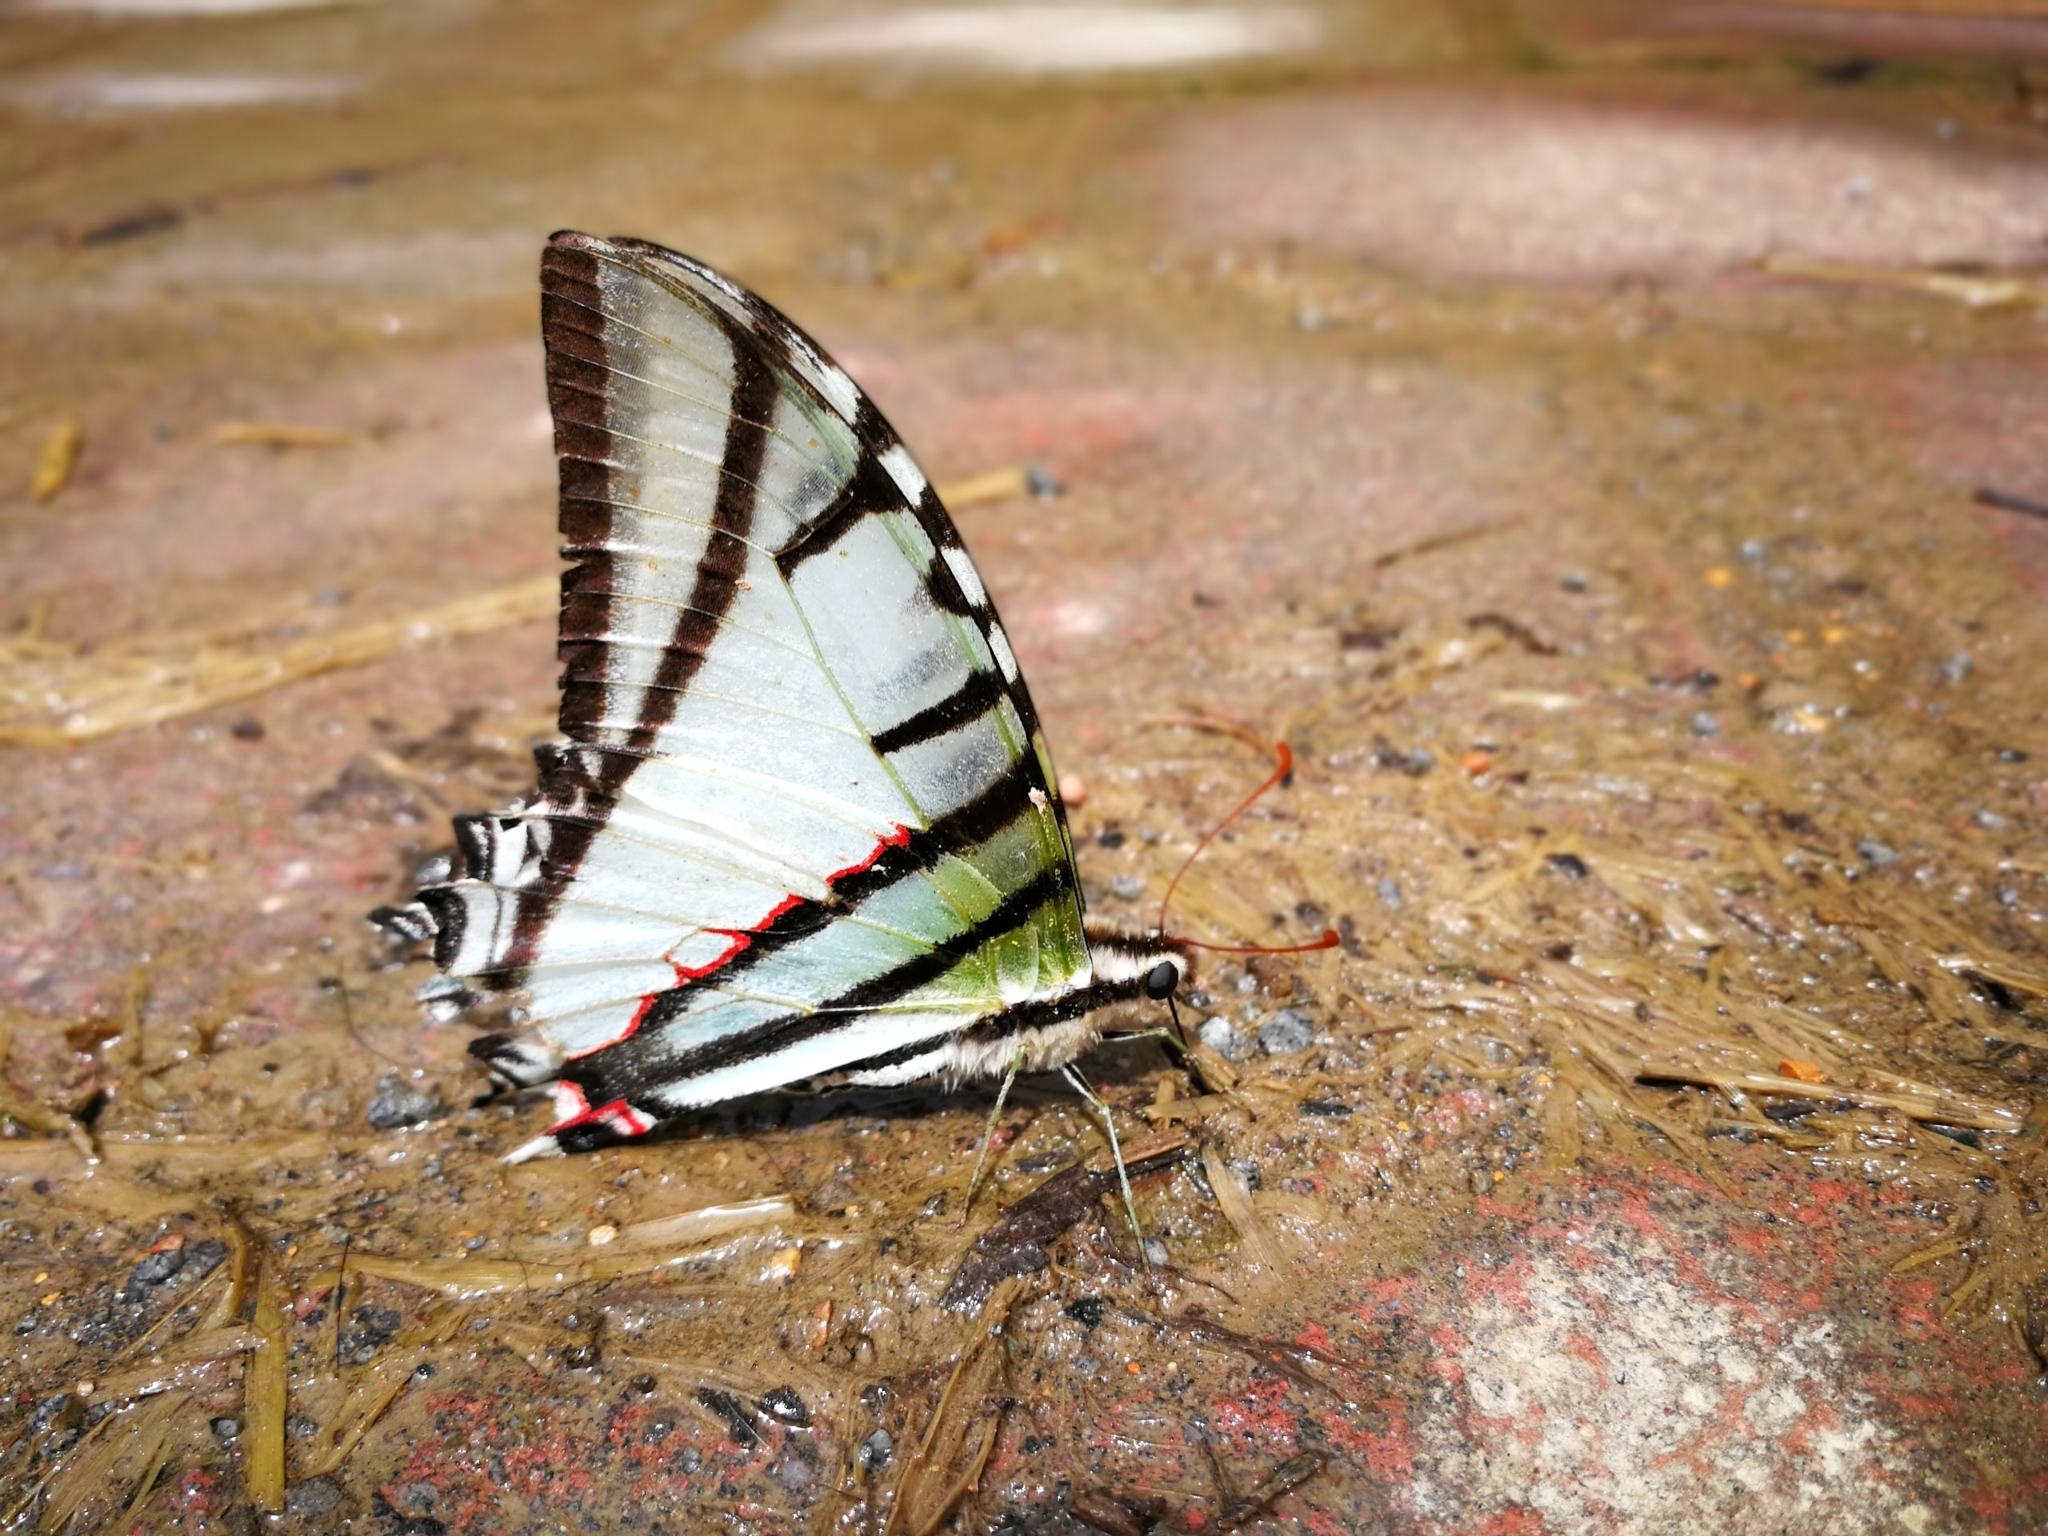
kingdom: Animalia
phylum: Arthropoda
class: Insecta
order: Lepidoptera
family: Papilionidae
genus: Protesilaus
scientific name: Protesilaus protesilaus
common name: Great kite-swallowtail
